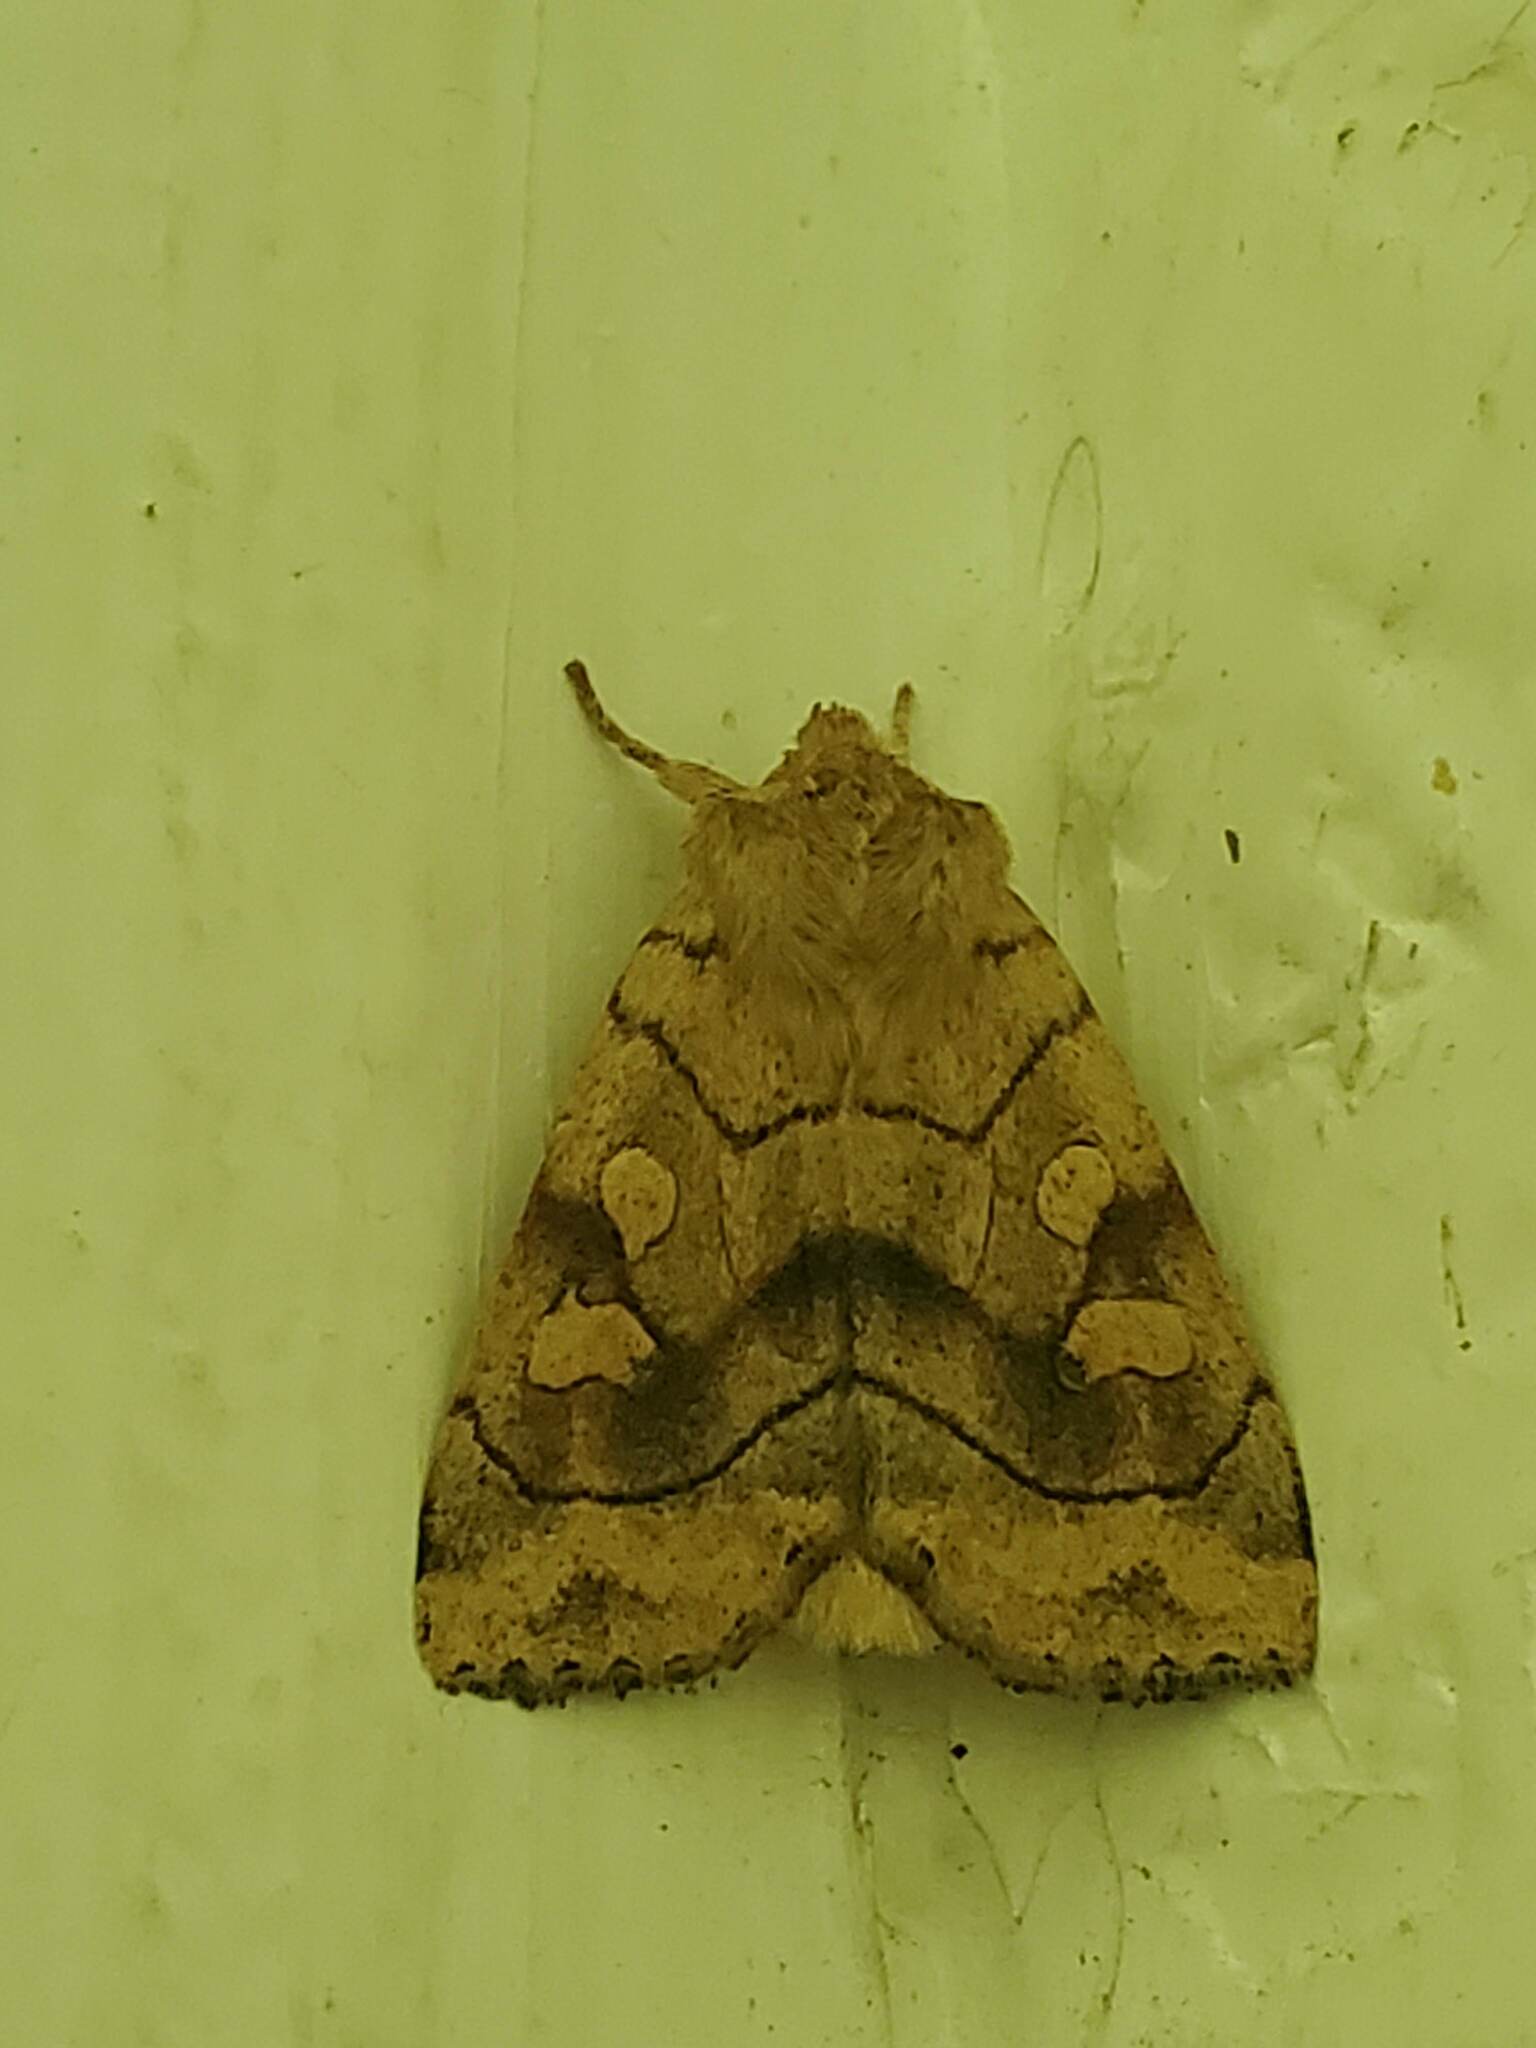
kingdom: Animalia
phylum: Arthropoda
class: Insecta
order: Lepidoptera
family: Noctuidae
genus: Enargia
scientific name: Enargia decolor
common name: Aspen twoleaf tier moth
